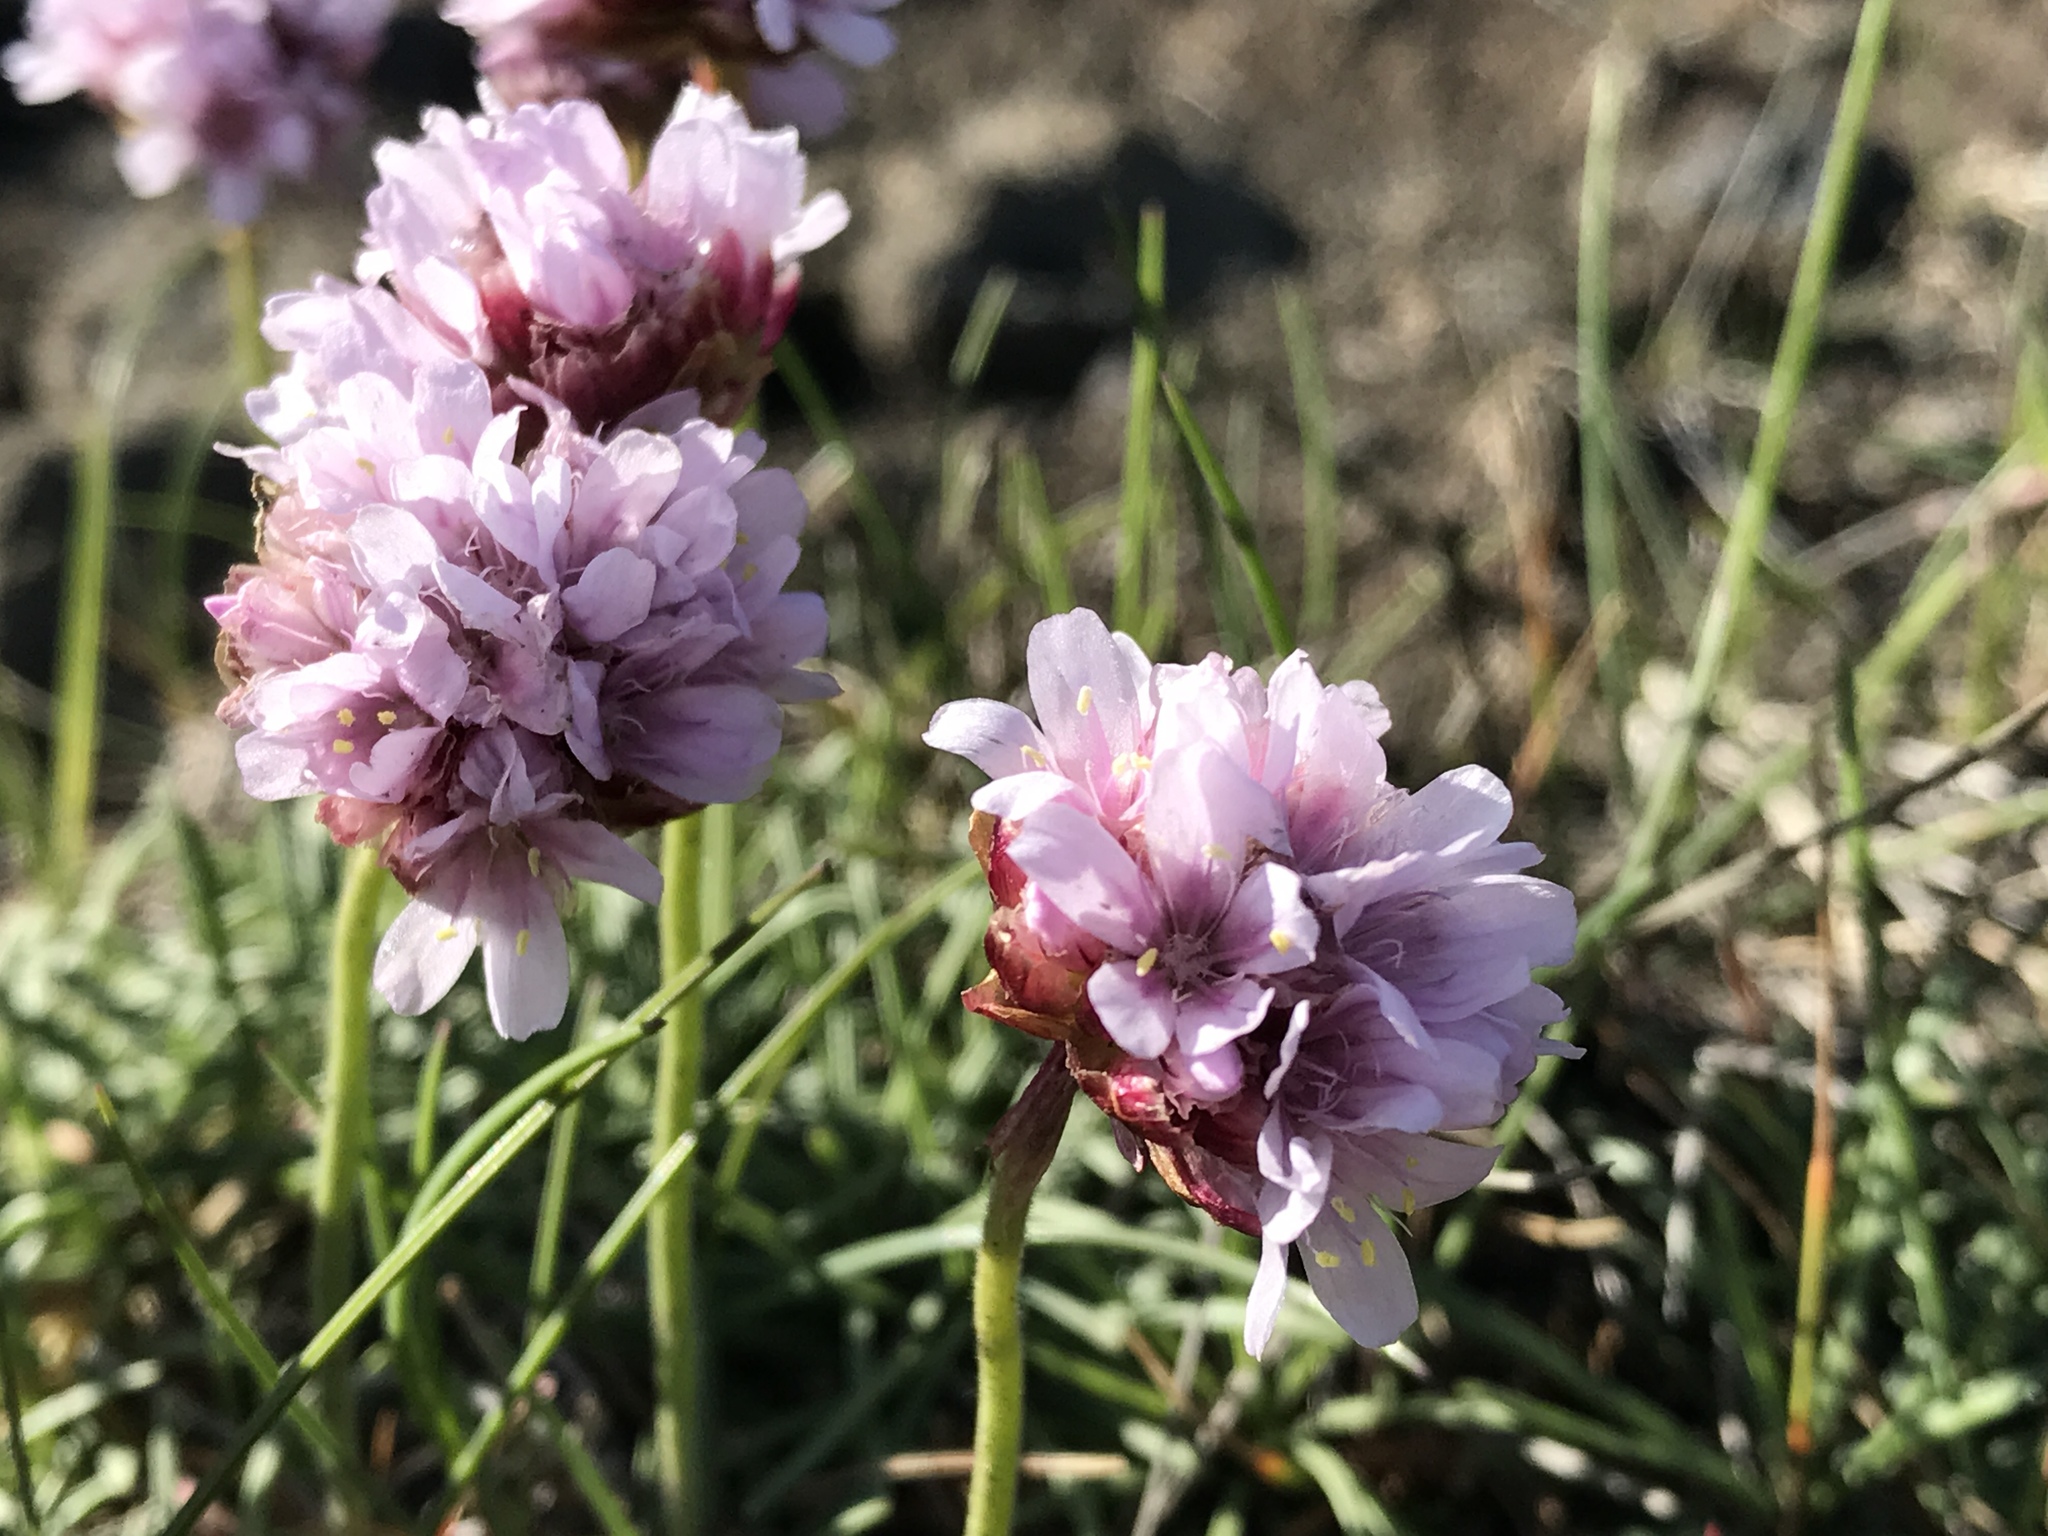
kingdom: Plantae
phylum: Tracheophyta
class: Magnoliopsida
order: Caryophyllales
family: Plumbaginaceae
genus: Armeria
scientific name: Armeria maritima
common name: Thrift
